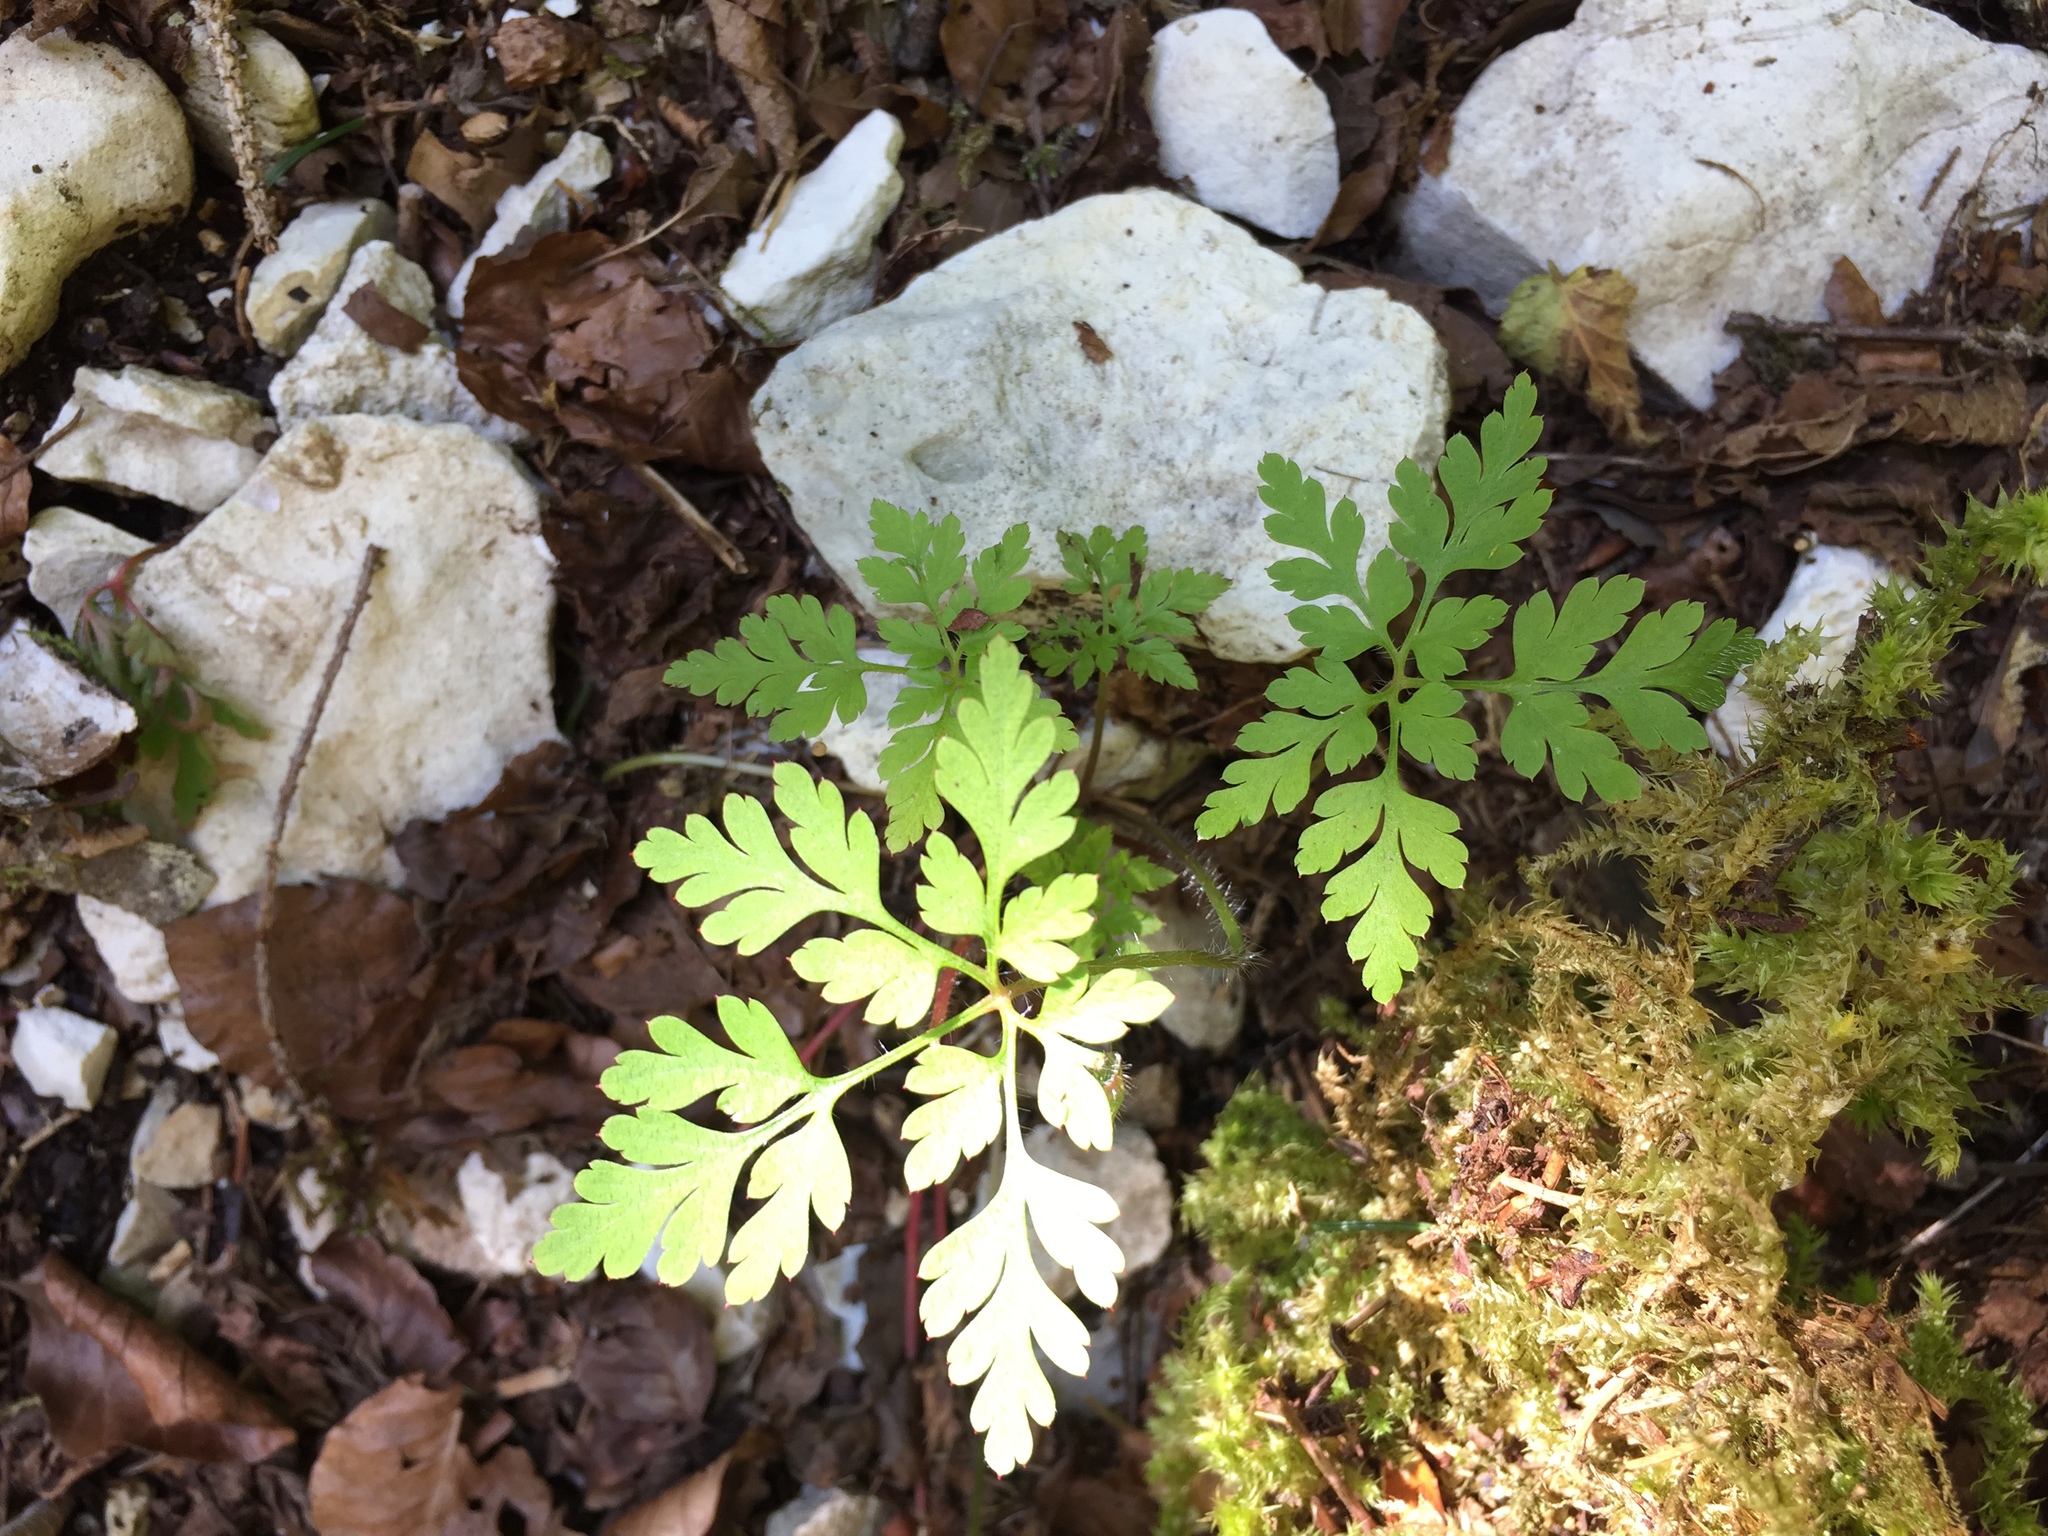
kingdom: Plantae
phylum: Tracheophyta
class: Magnoliopsida
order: Geraniales
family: Geraniaceae
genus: Geranium
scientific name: Geranium robertianum
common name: Herb-robert
